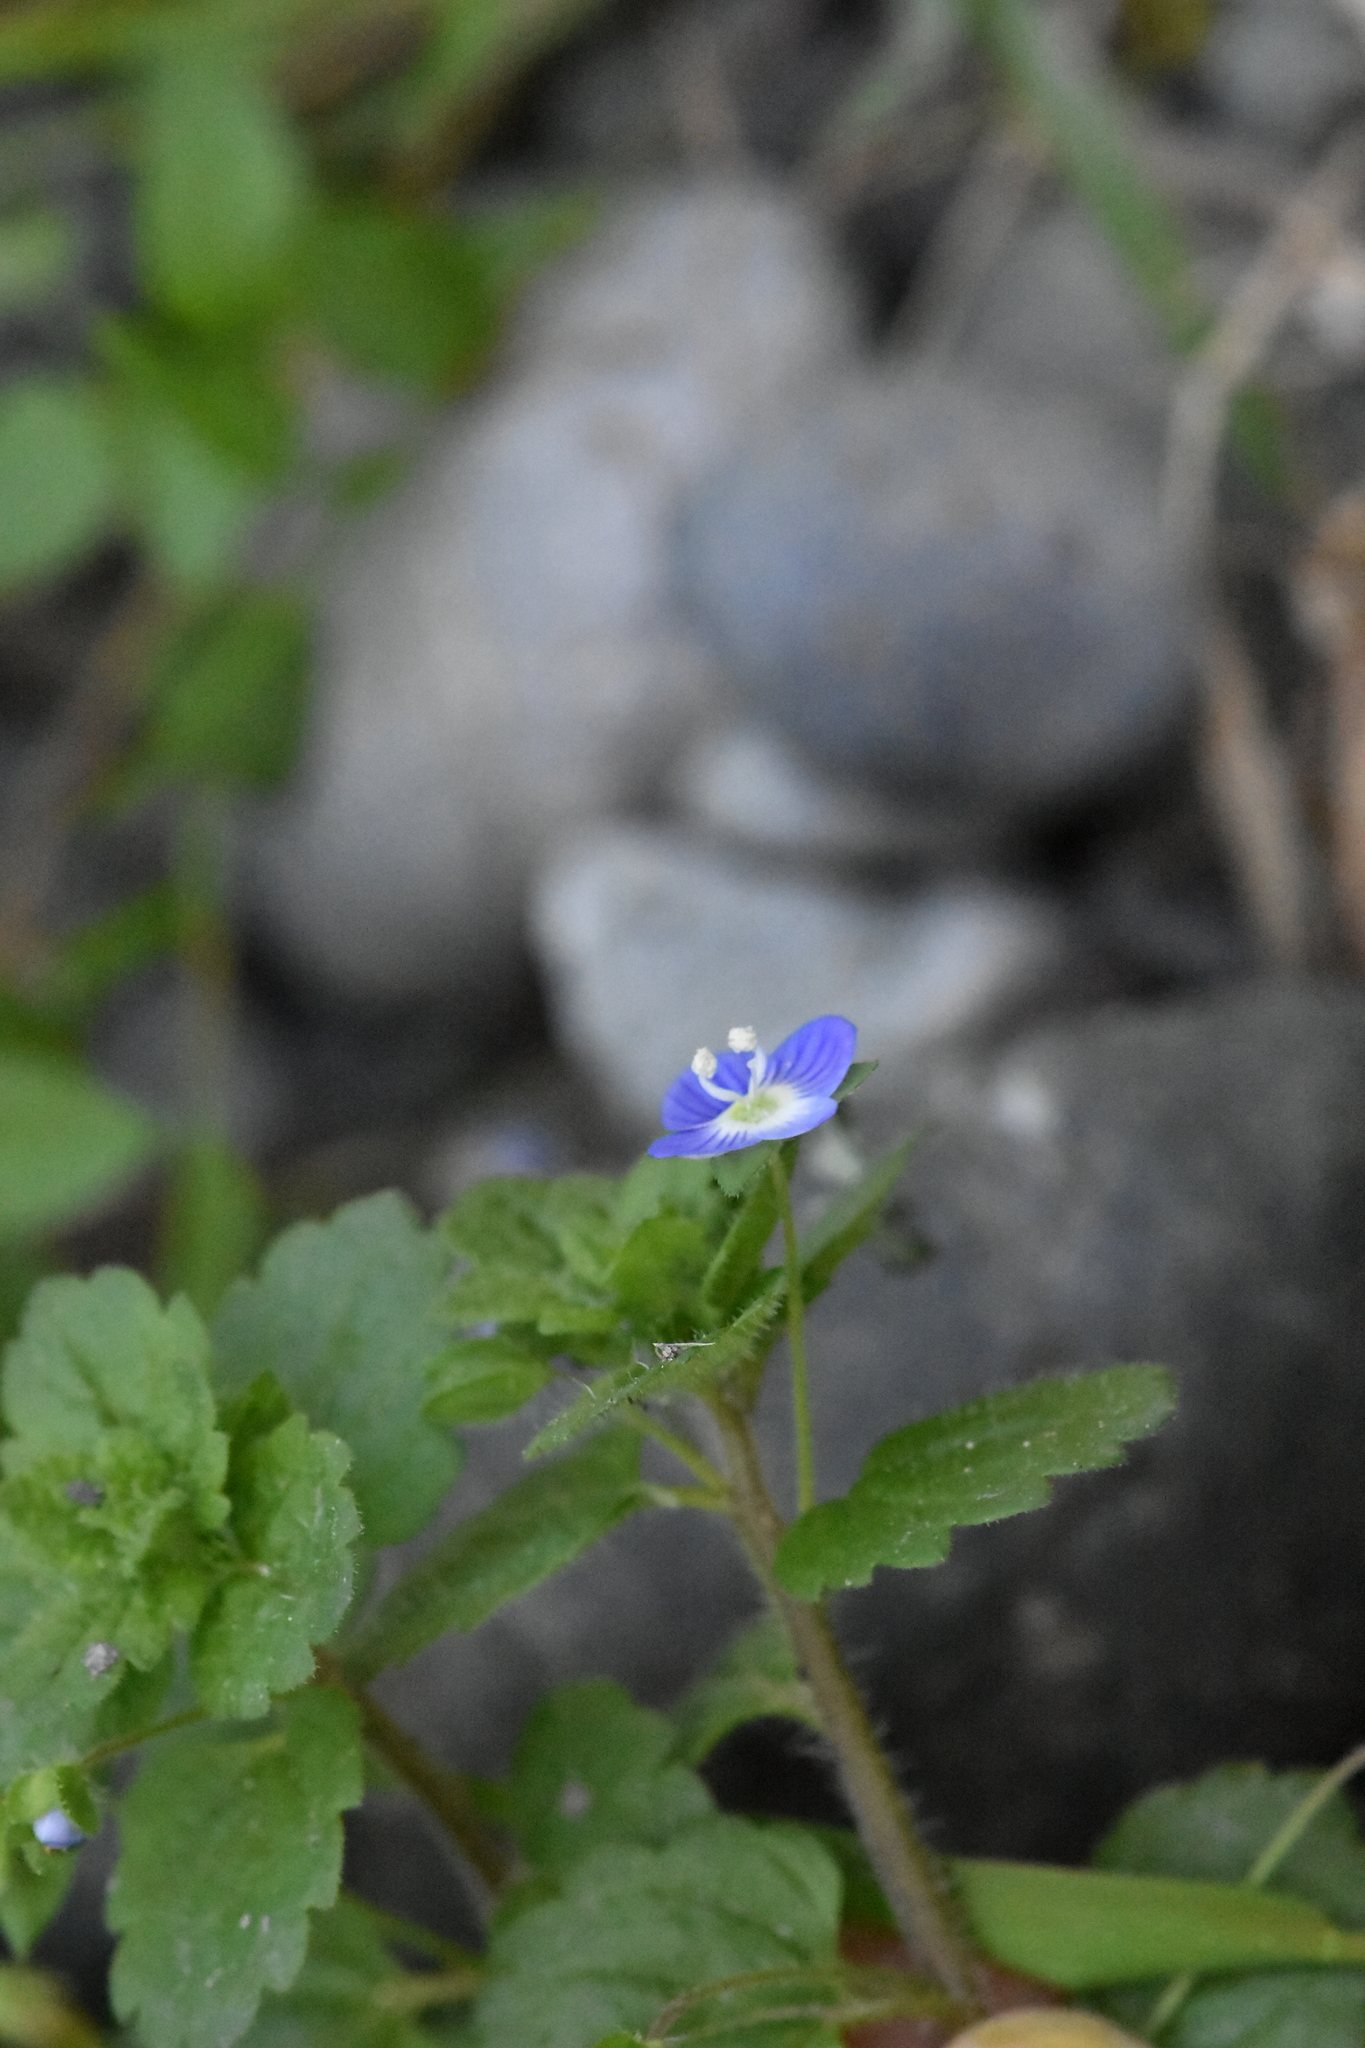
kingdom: Plantae
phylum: Tracheophyta
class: Magnoliopsida
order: Lamiales
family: Plantaginaceae
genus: Veronica
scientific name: Veronica persica
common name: Common field-speedwell
